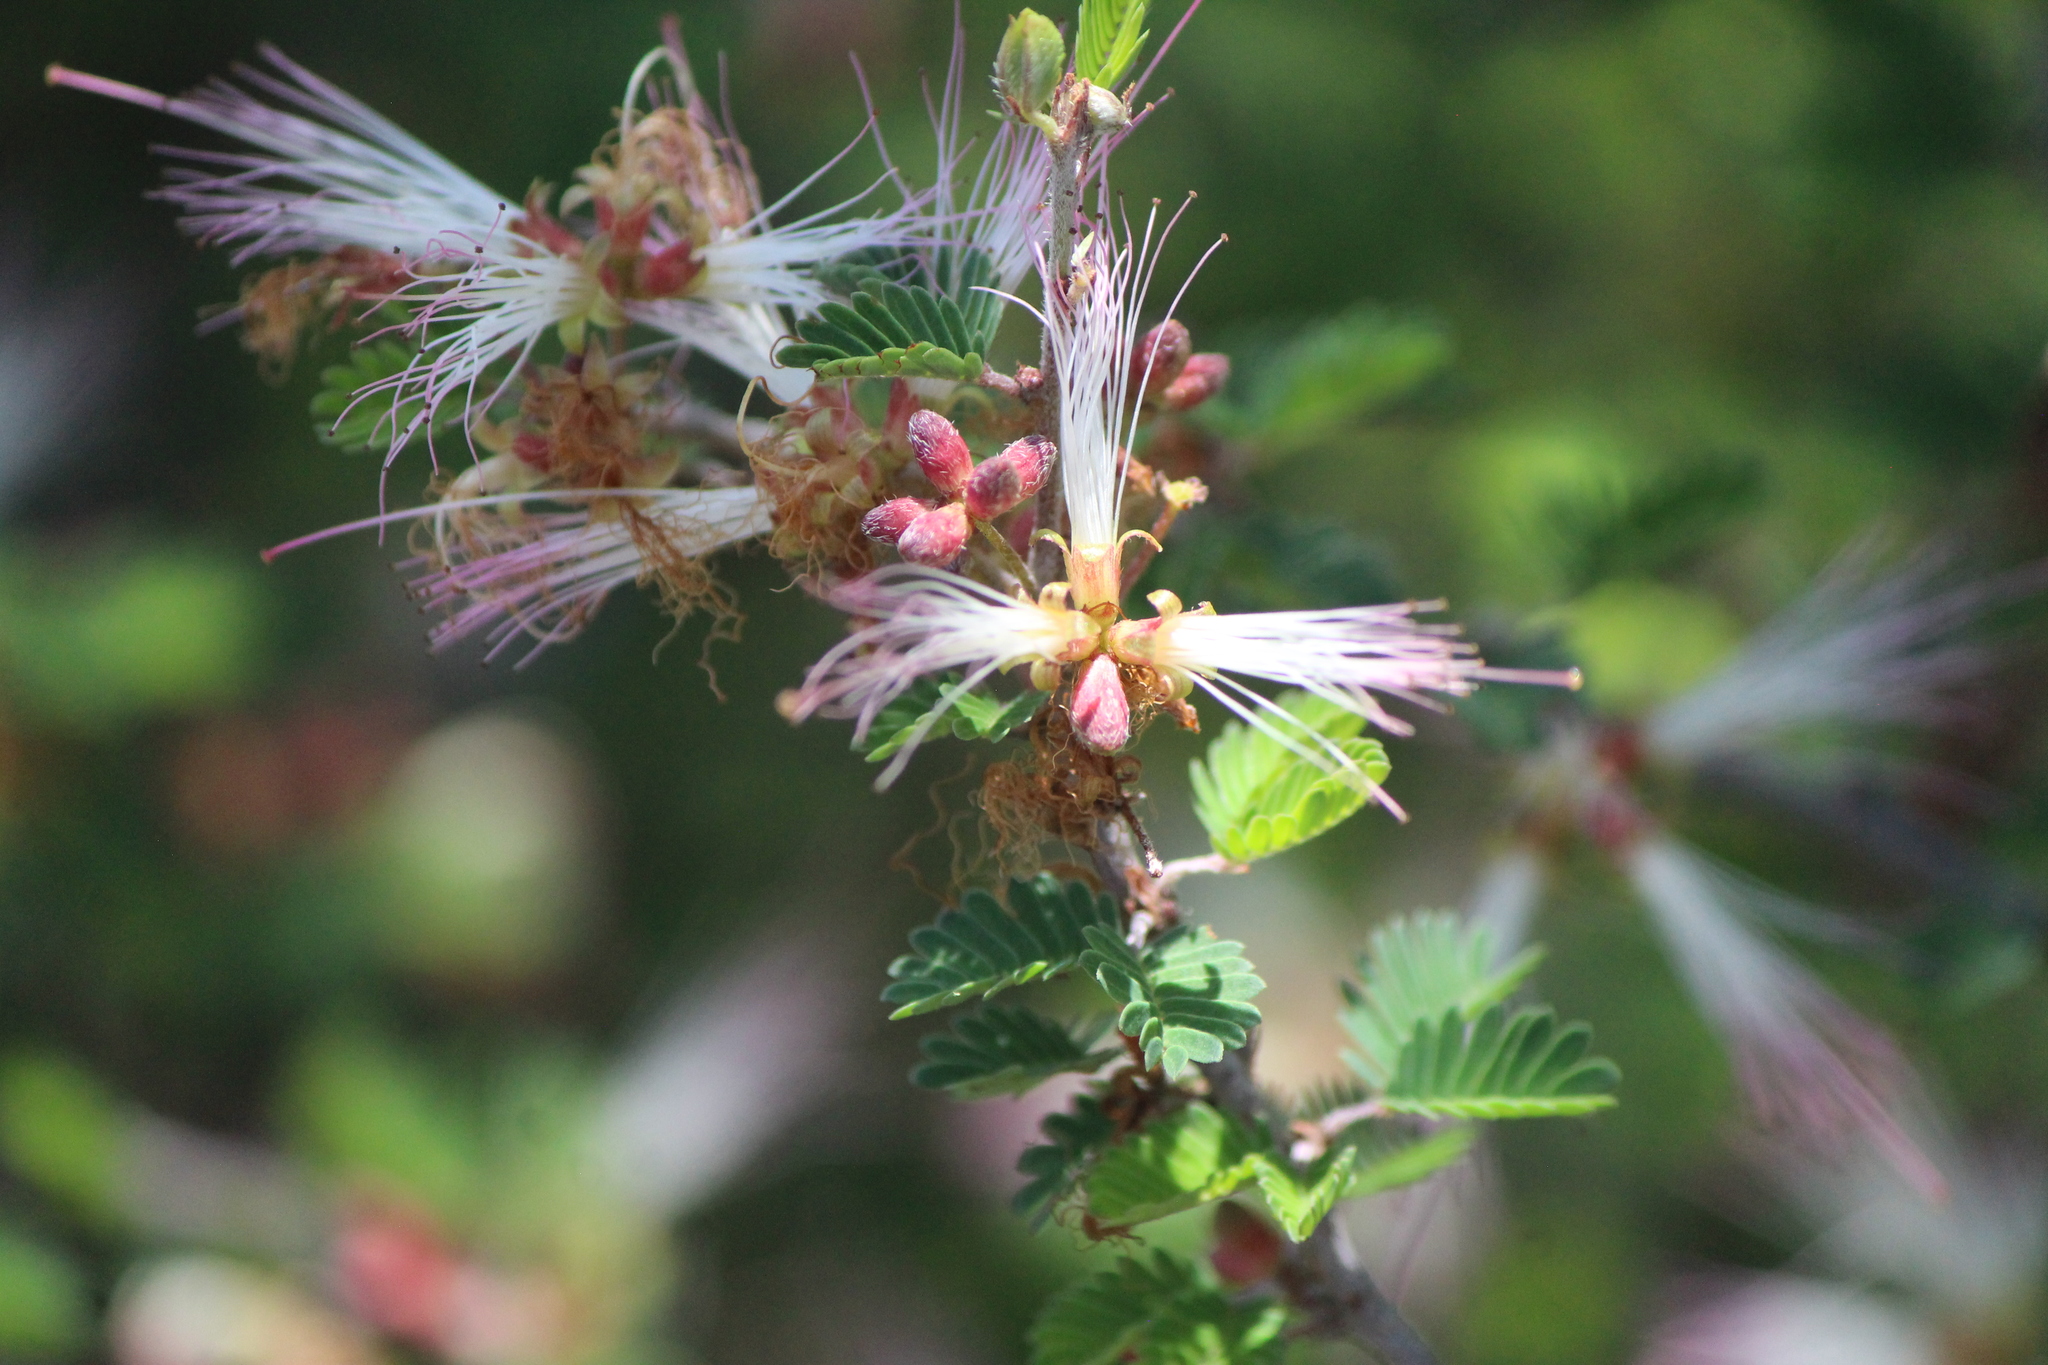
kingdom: Plantae
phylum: Tracheophyta
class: Magnoliopsida
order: Fabales
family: Fabaceae
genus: Calliandra
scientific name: Calliandra eriophylla
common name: Fairy-duster
